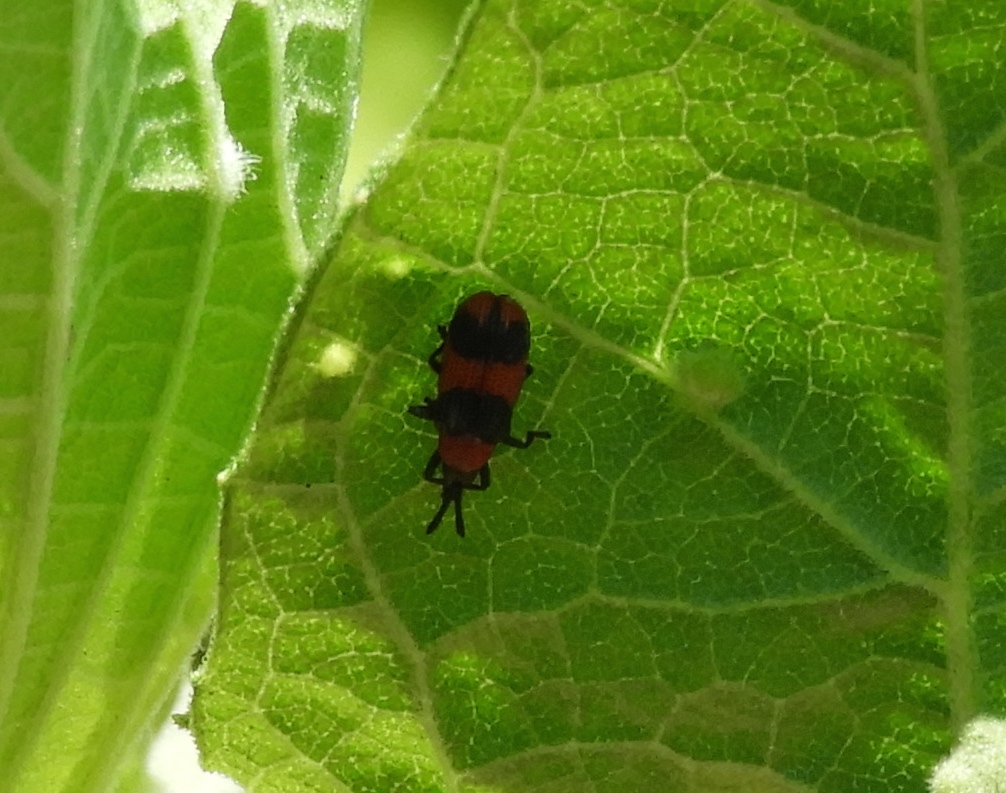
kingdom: Animalia
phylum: Arthropoda
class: Insecta
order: Coleoptera
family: Chrysomelidae
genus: Microrhopala
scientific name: Microrhopala beckeri
